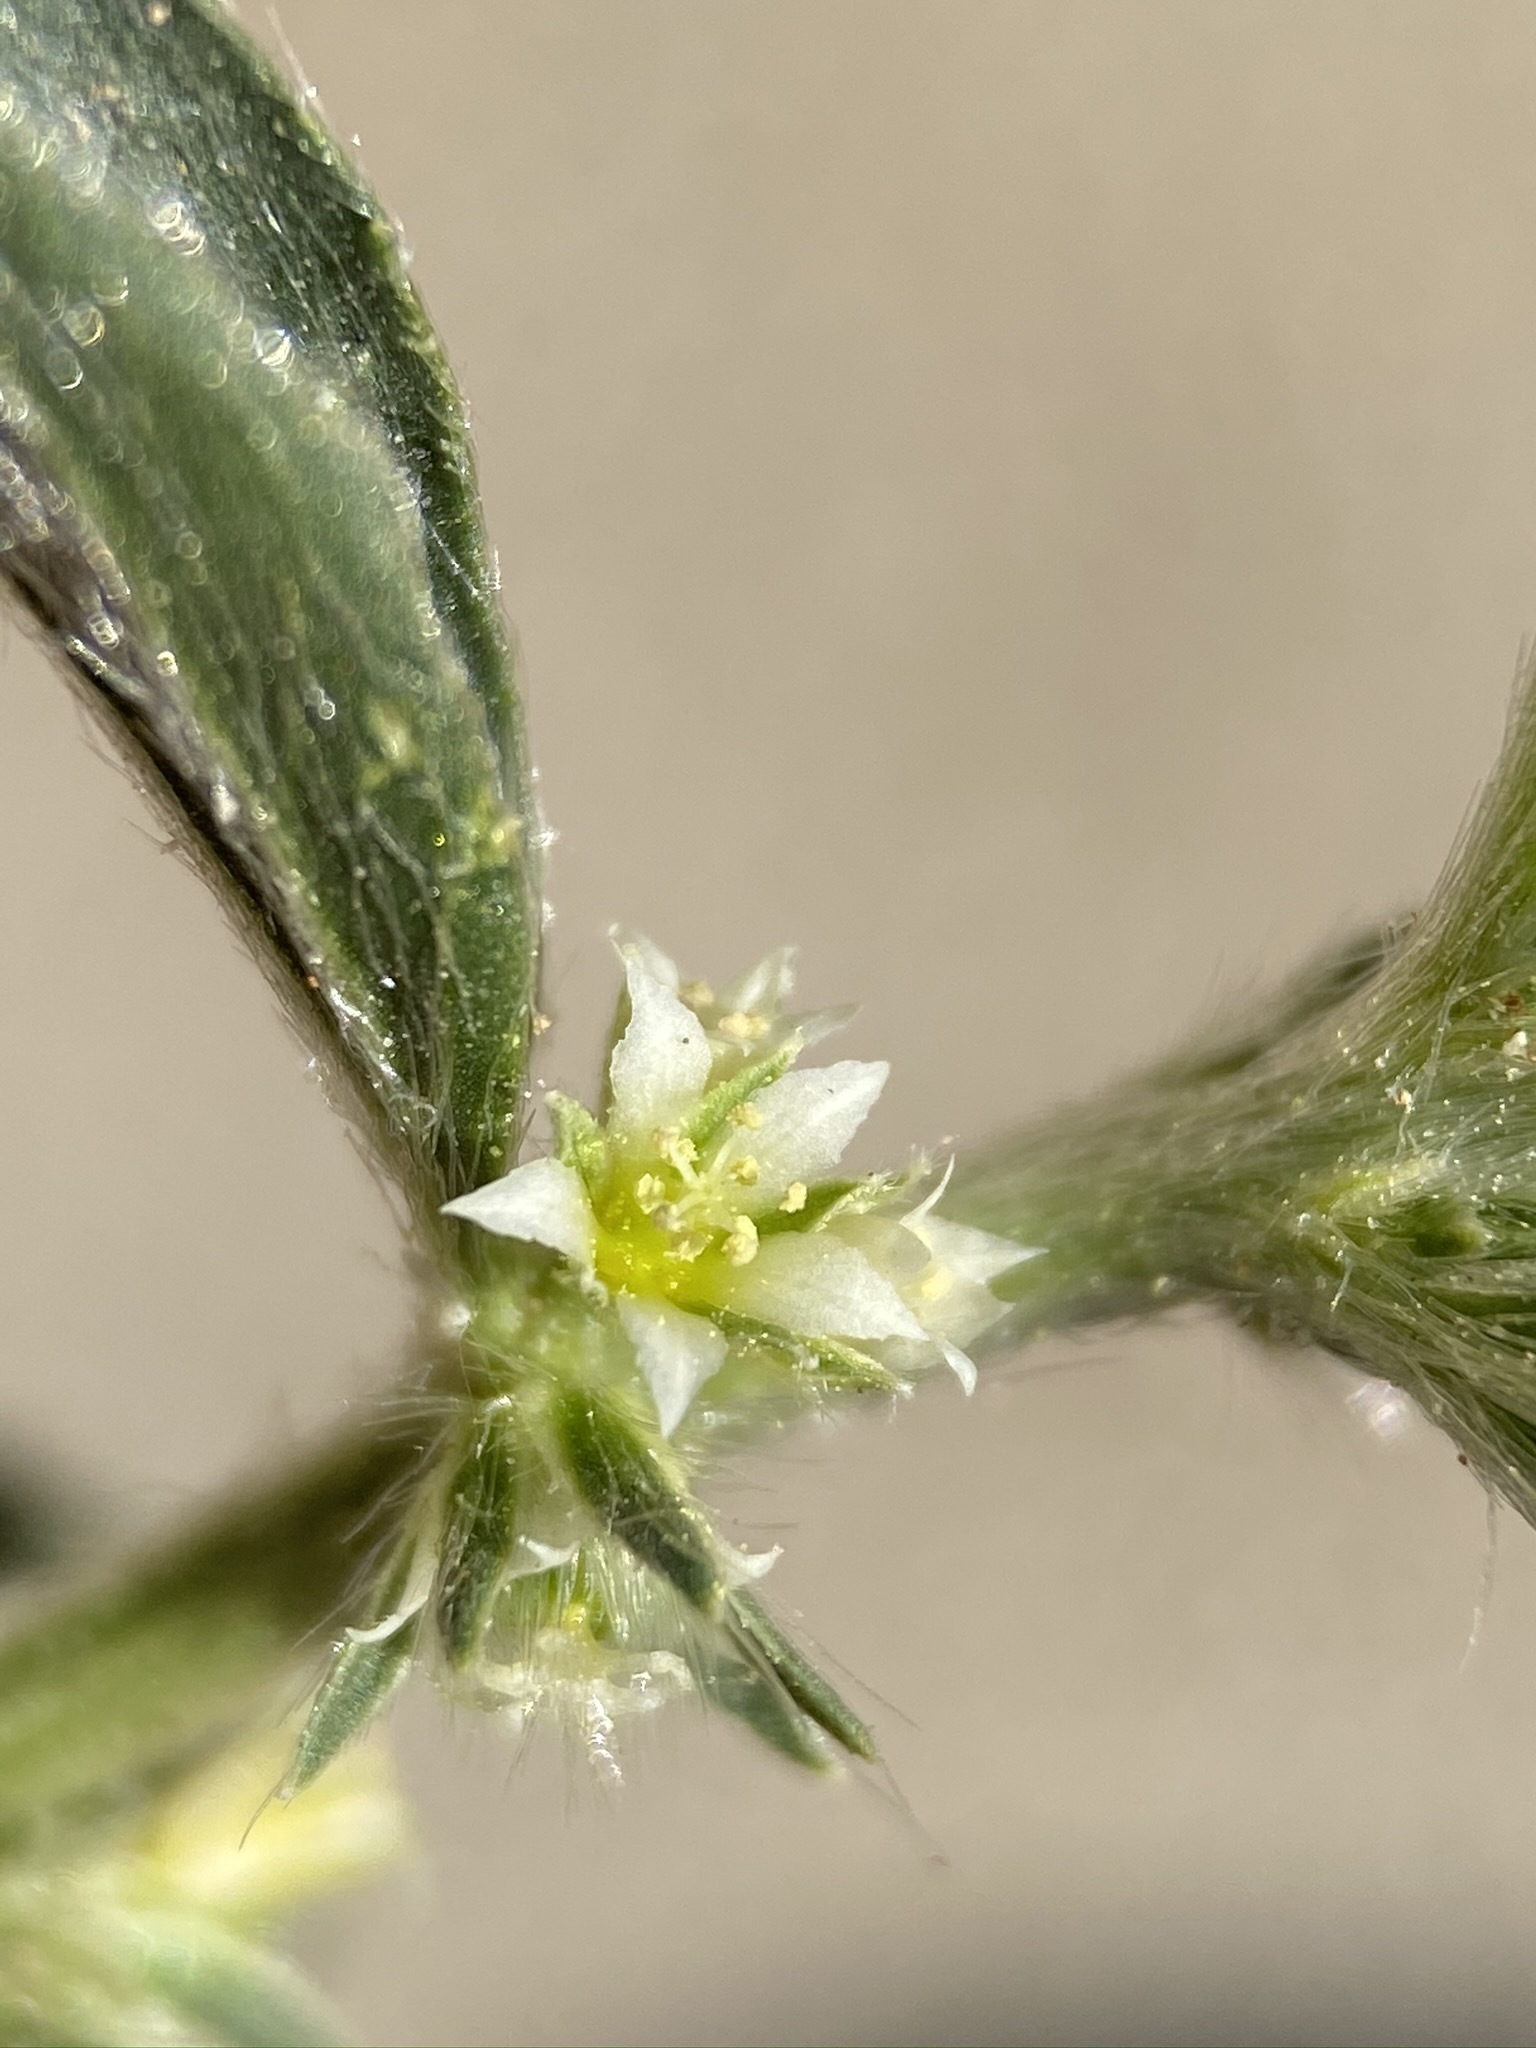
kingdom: Plantae
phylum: Tracheophyta
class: Magnoliopsida
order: Malpighiales
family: Euphorbiaceae
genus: Ditaxis
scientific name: Ditaxis serrata
